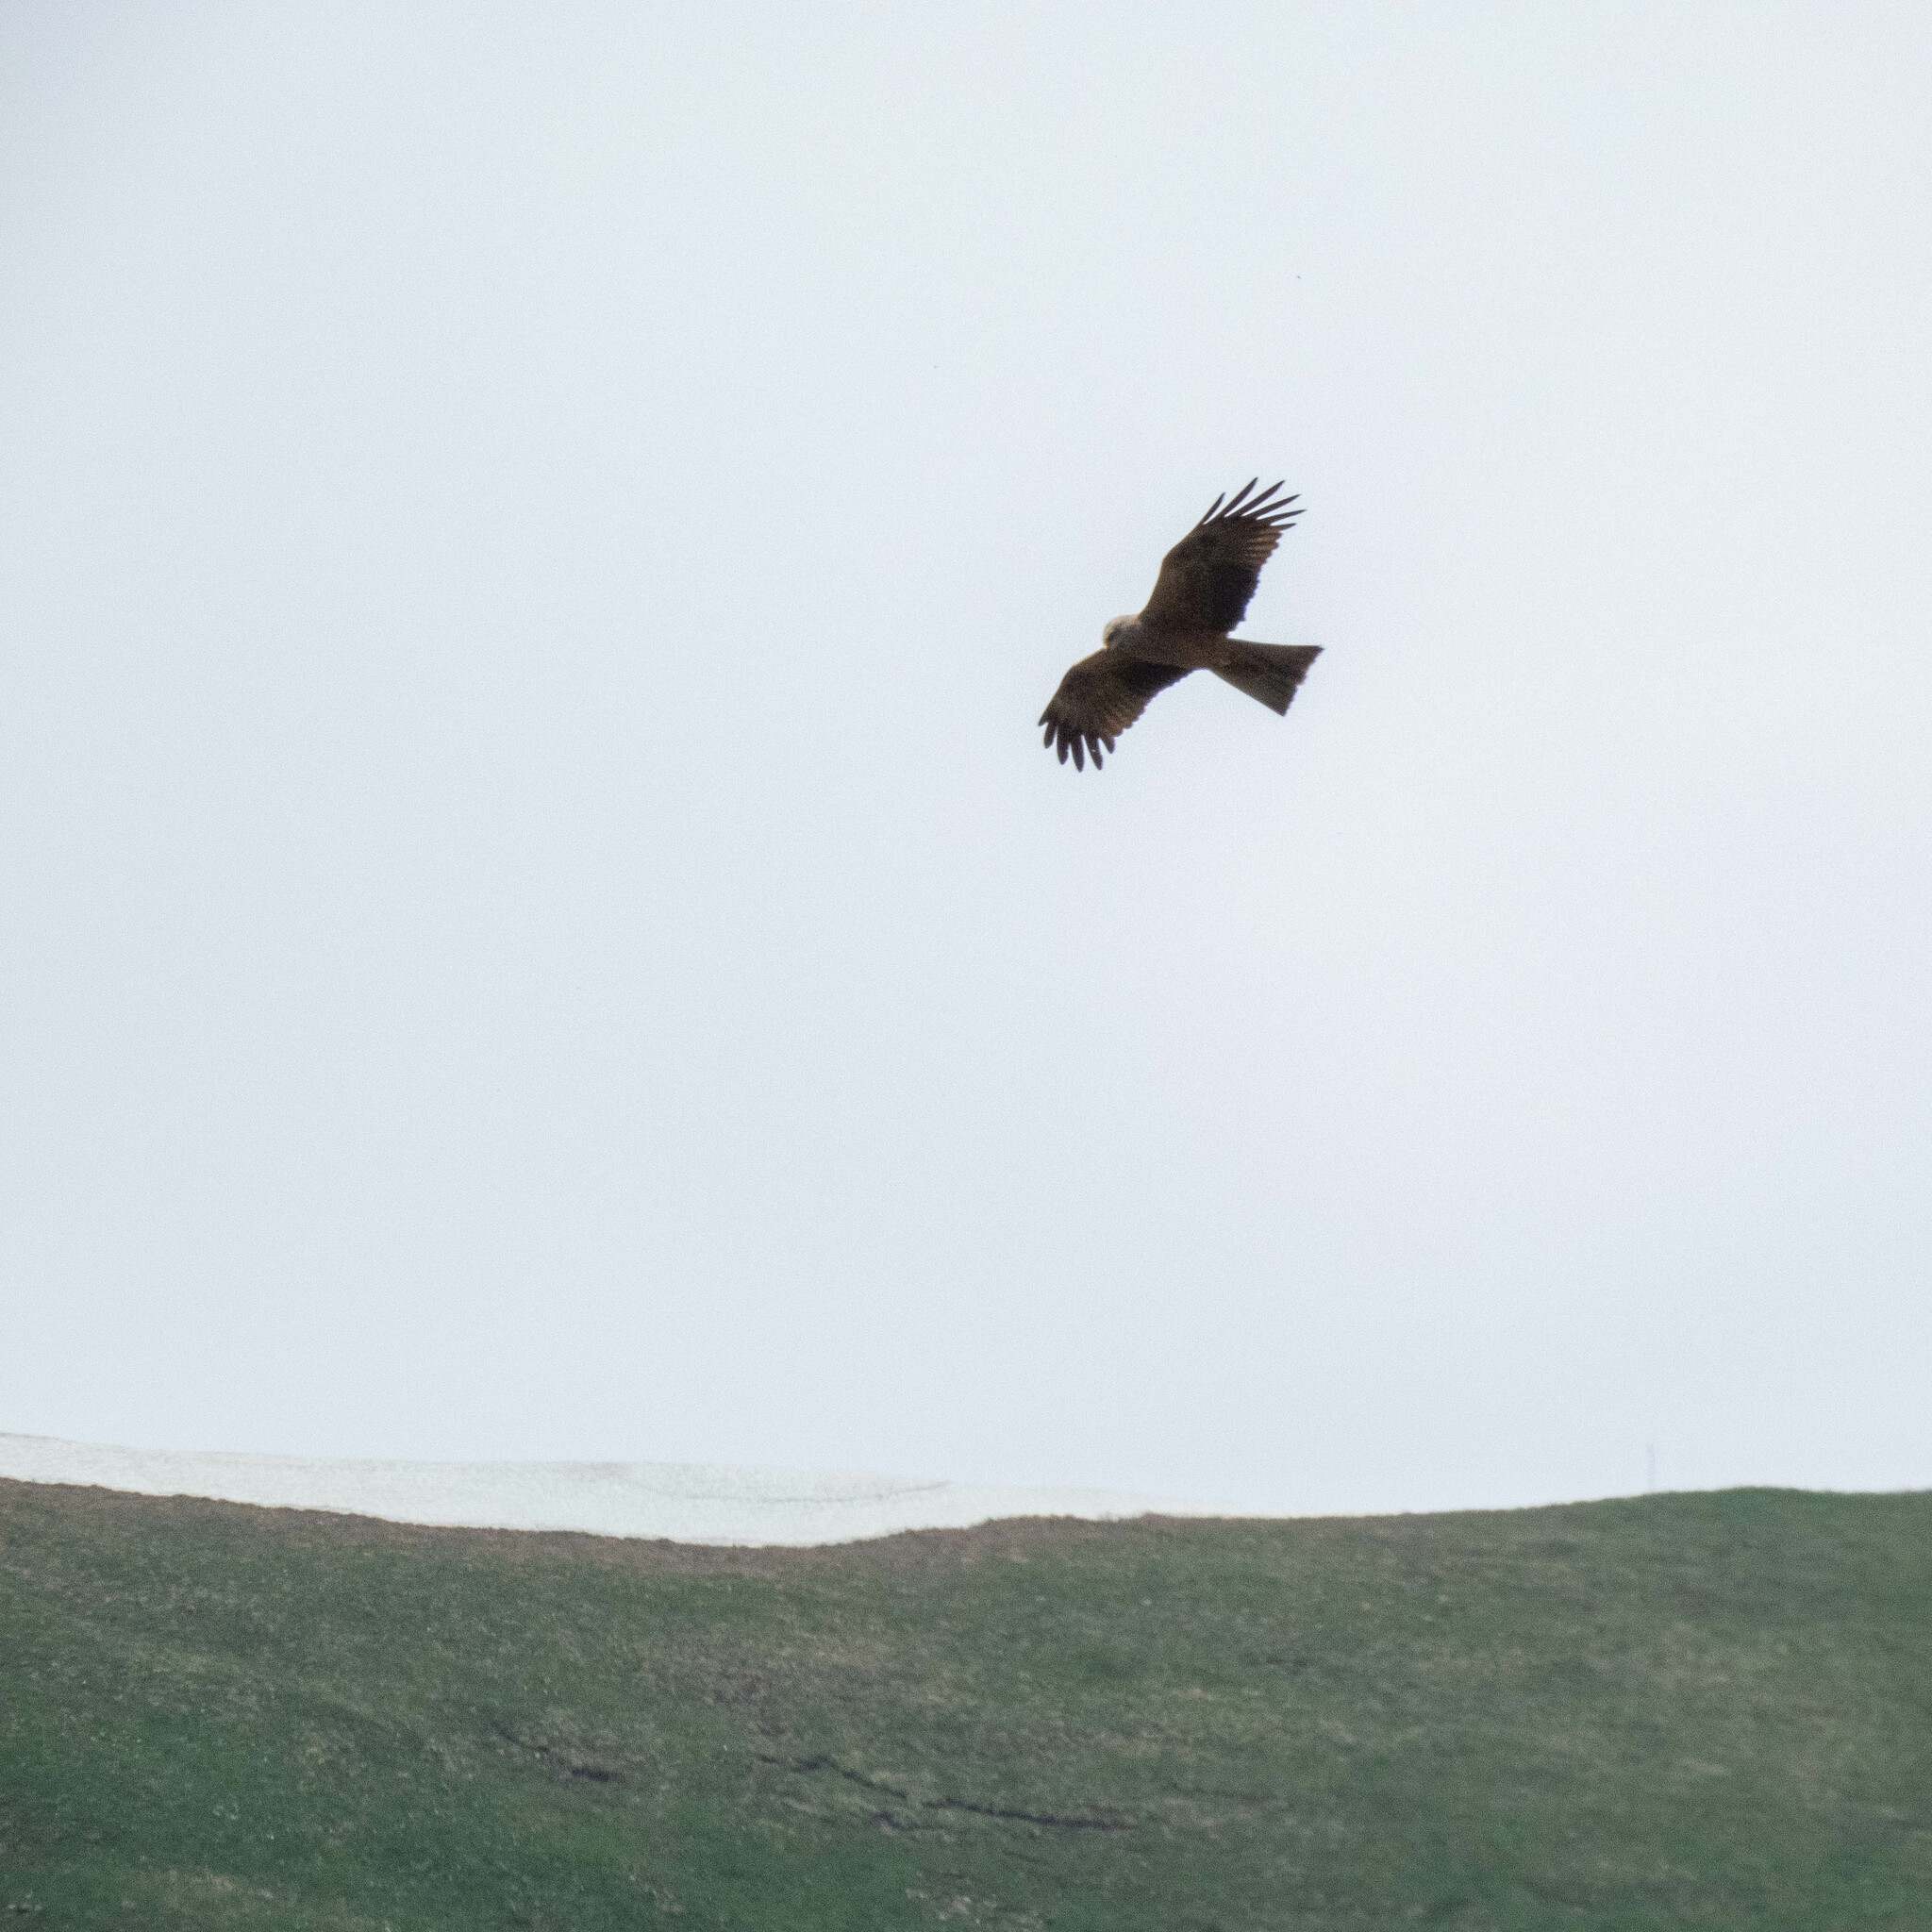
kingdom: Animalia
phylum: Chordata
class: Aves
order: Accipitriformes
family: Accipitridae
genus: Milvus
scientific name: Milvus migrans
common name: Black kite
